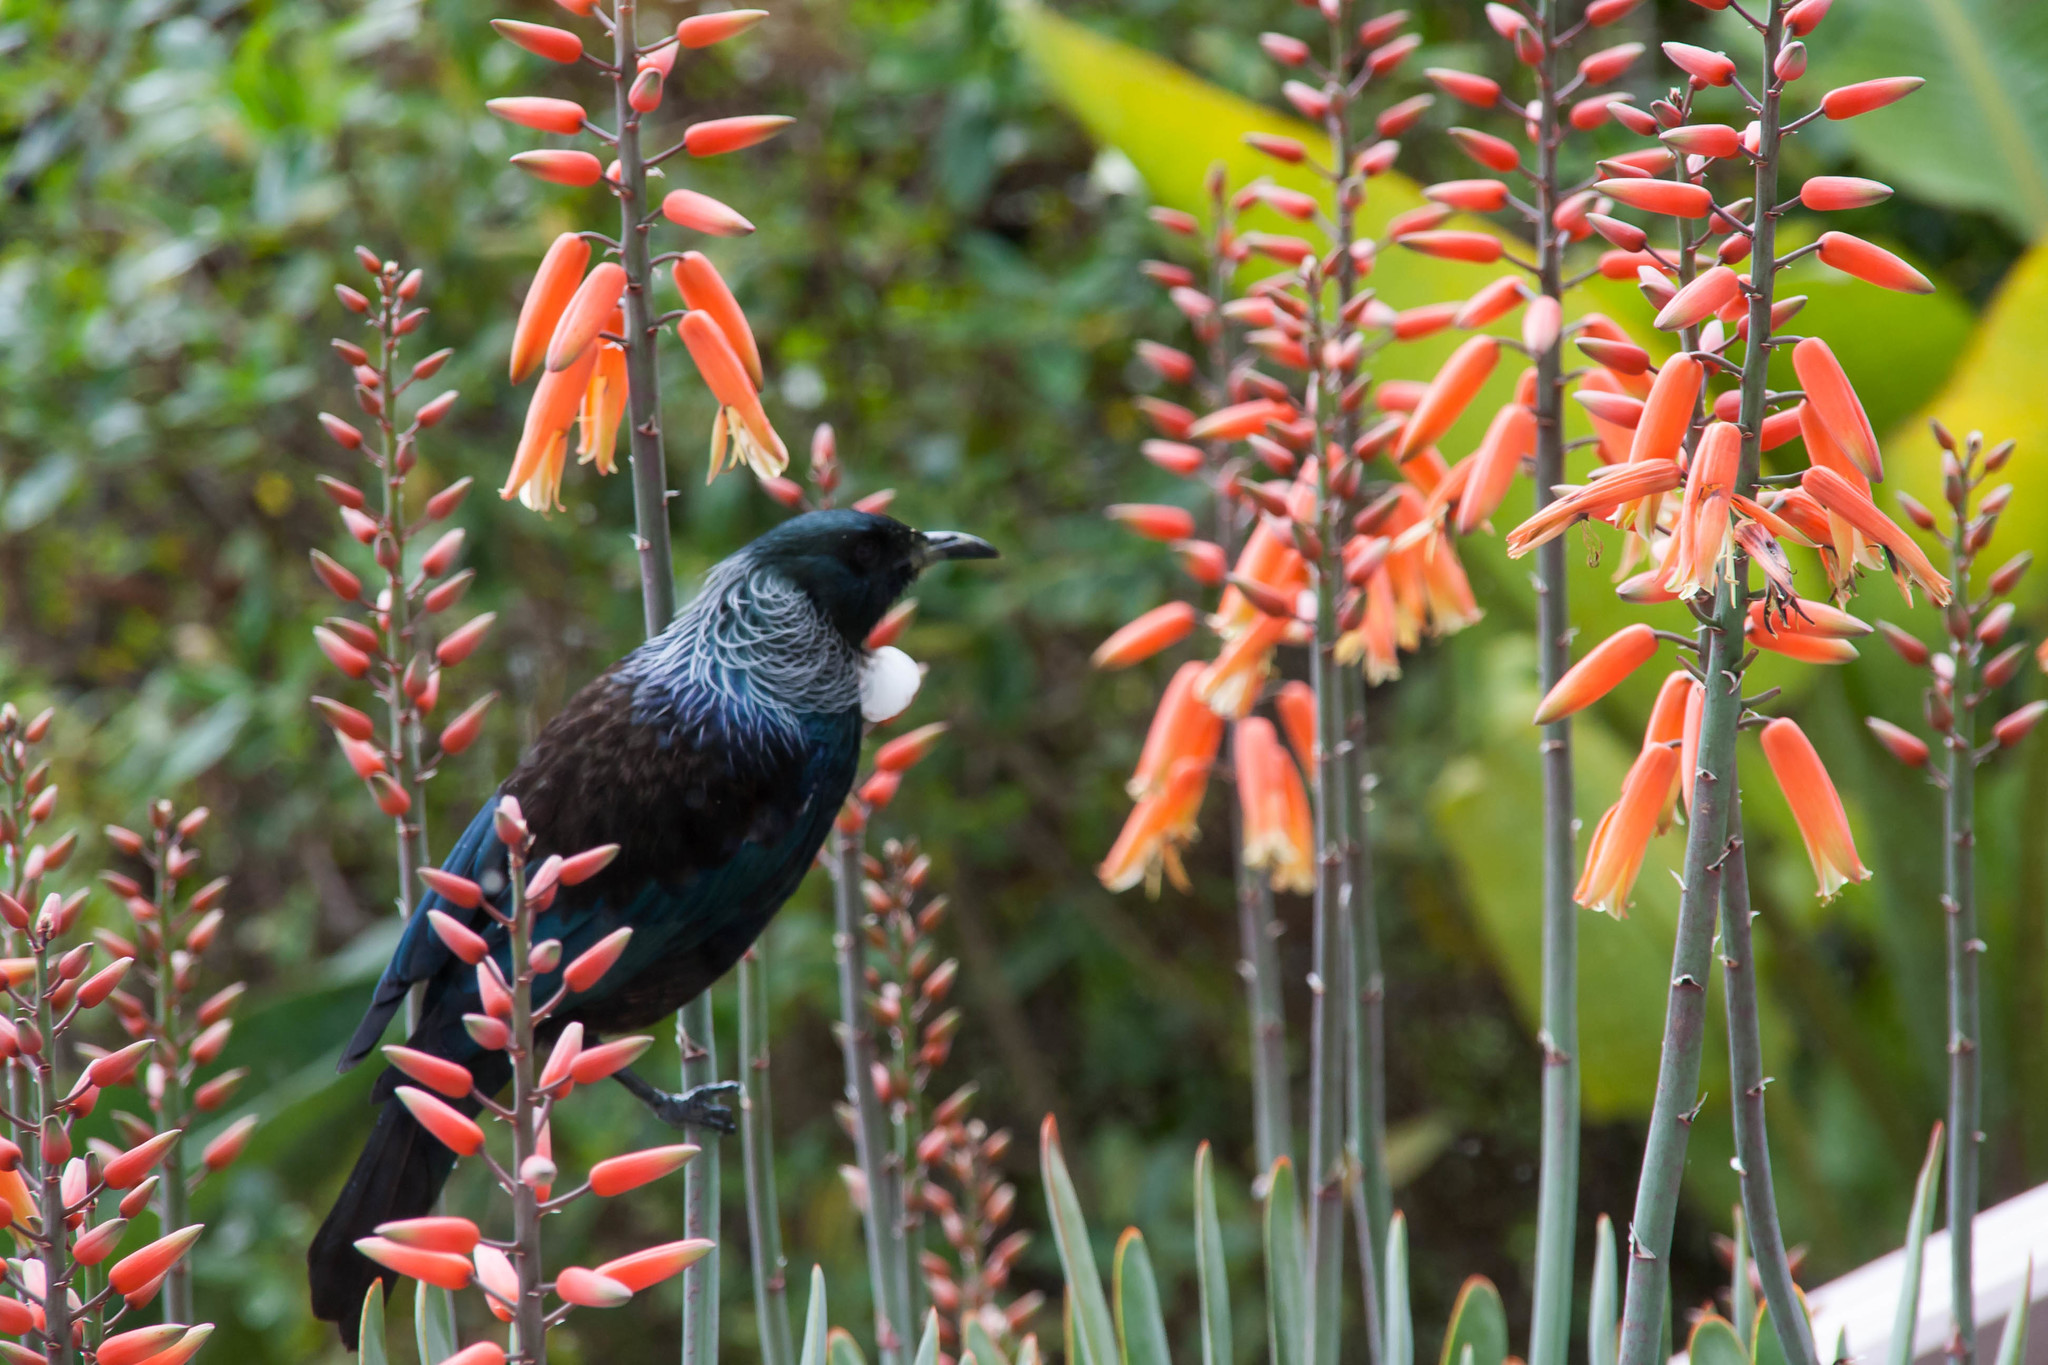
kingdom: Animalia
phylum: Chordata
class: Aves
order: Passeriformes
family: Meliphagidae
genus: Prosthemadera
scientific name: Prosthemadera novaeseelandiae
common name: Tui
